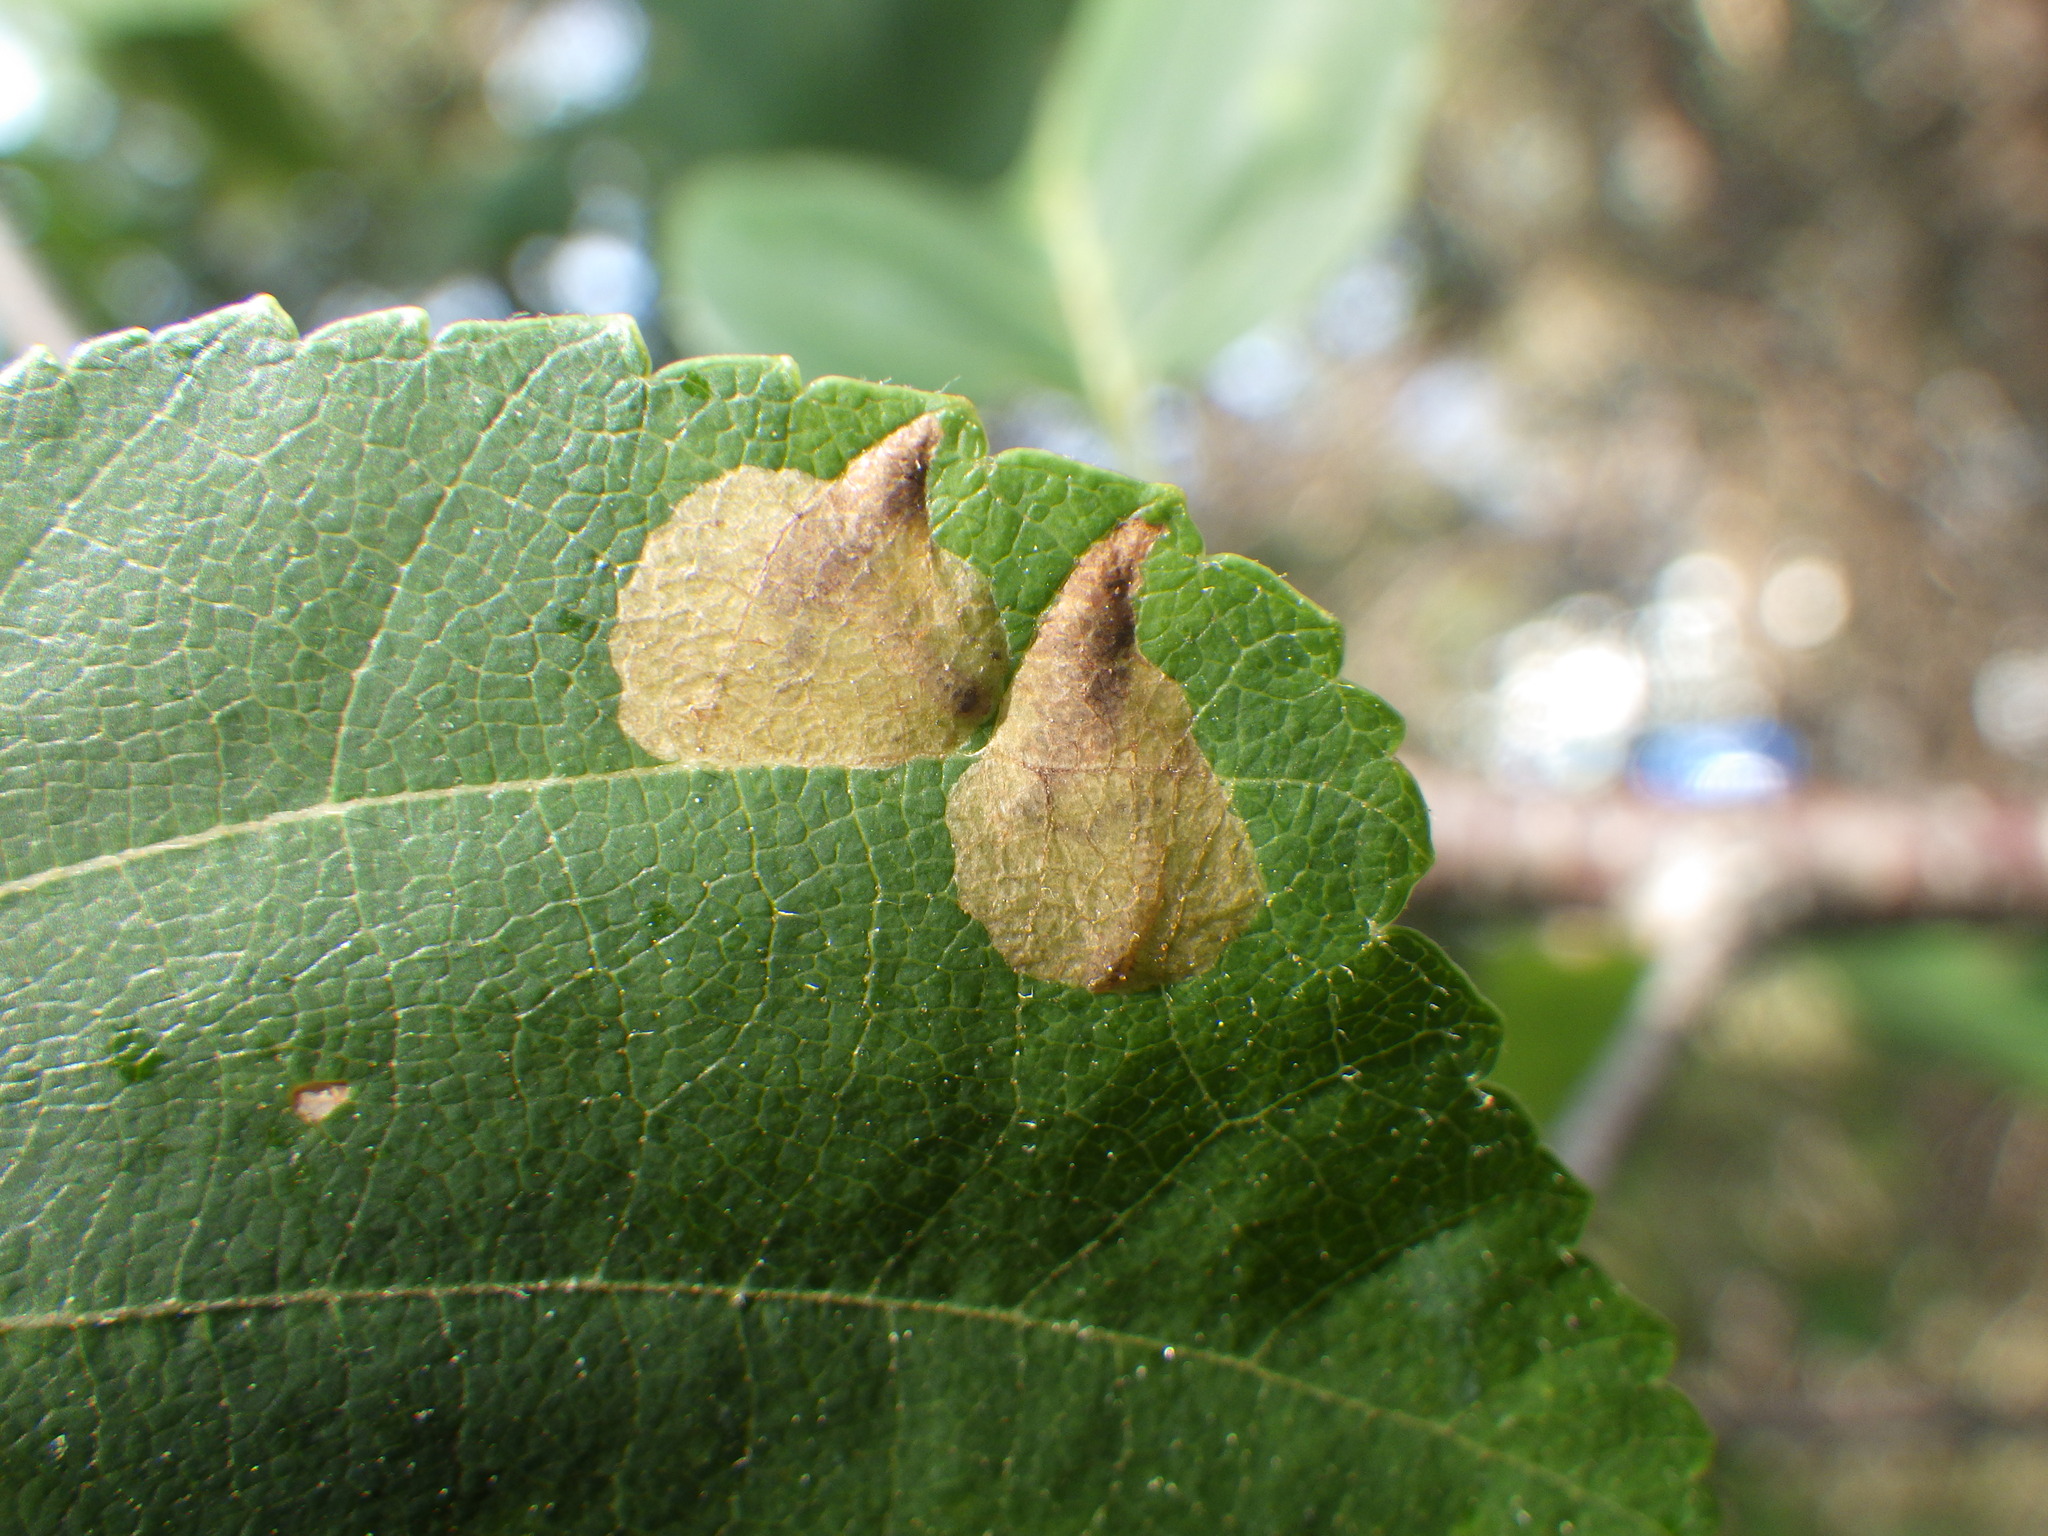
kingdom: Animalia
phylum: Arthropoda
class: Insecta
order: Hymenoptera
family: Tenthredinidae
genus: Fenusella
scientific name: Fenusella nana
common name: Early birch leaf edgeminer
